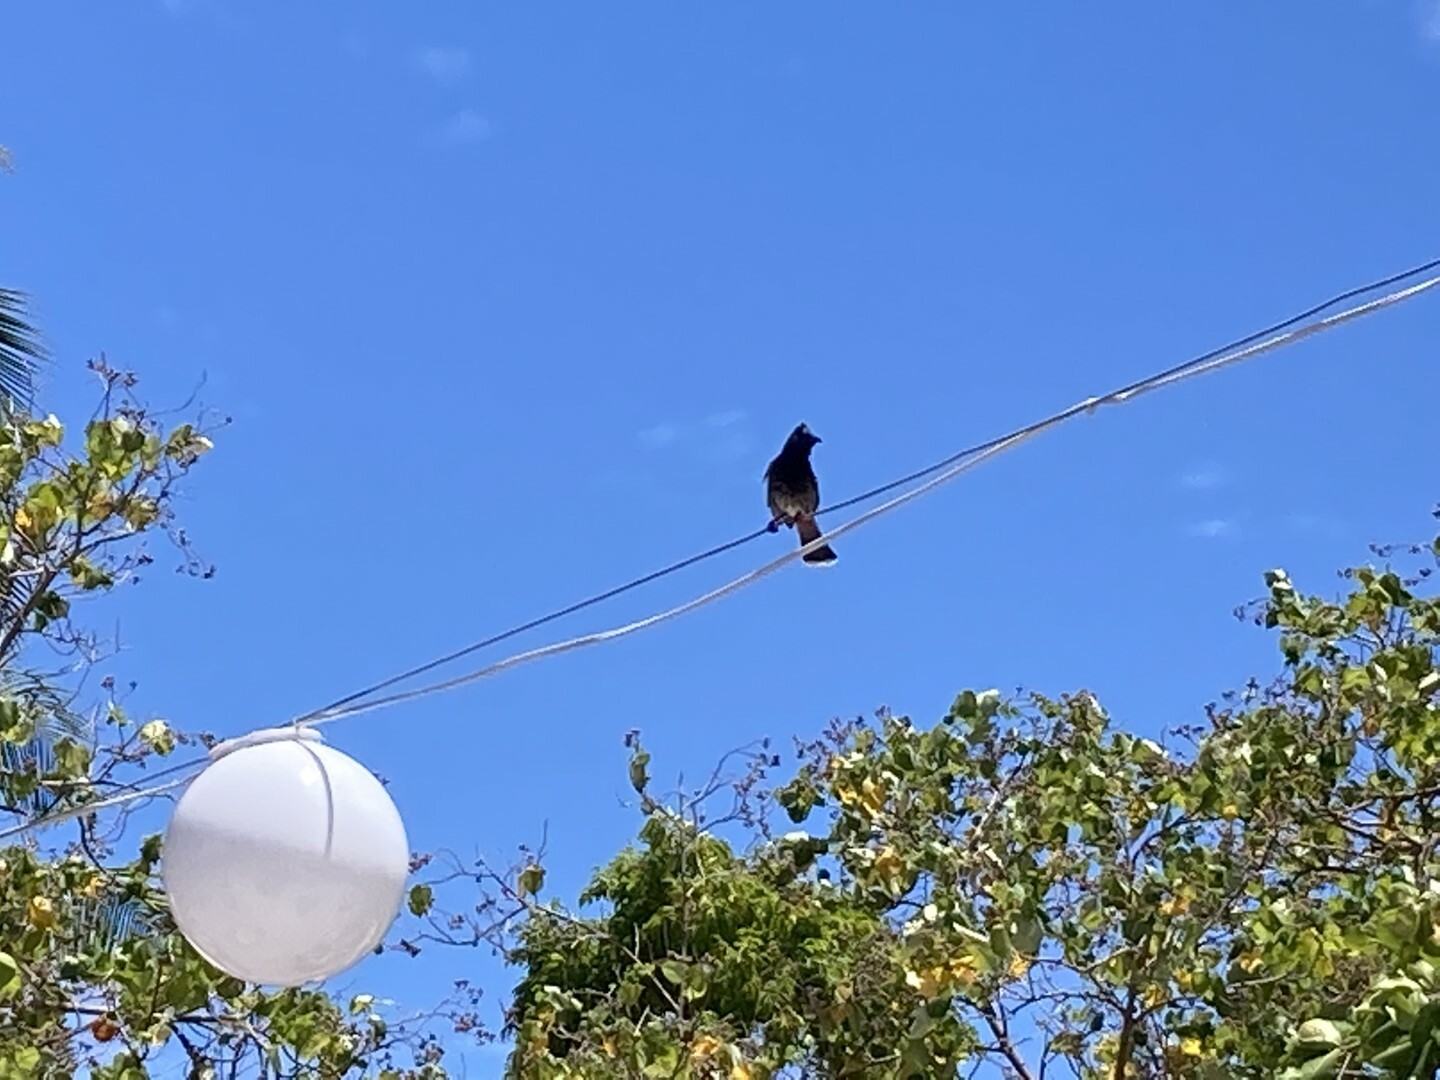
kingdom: Animalia
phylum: Chordata
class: Aves
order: Passeriformes
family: Pycnonotidae
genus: Pycnonotus
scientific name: Pycnonotus cafer
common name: Red-vented bulbul
